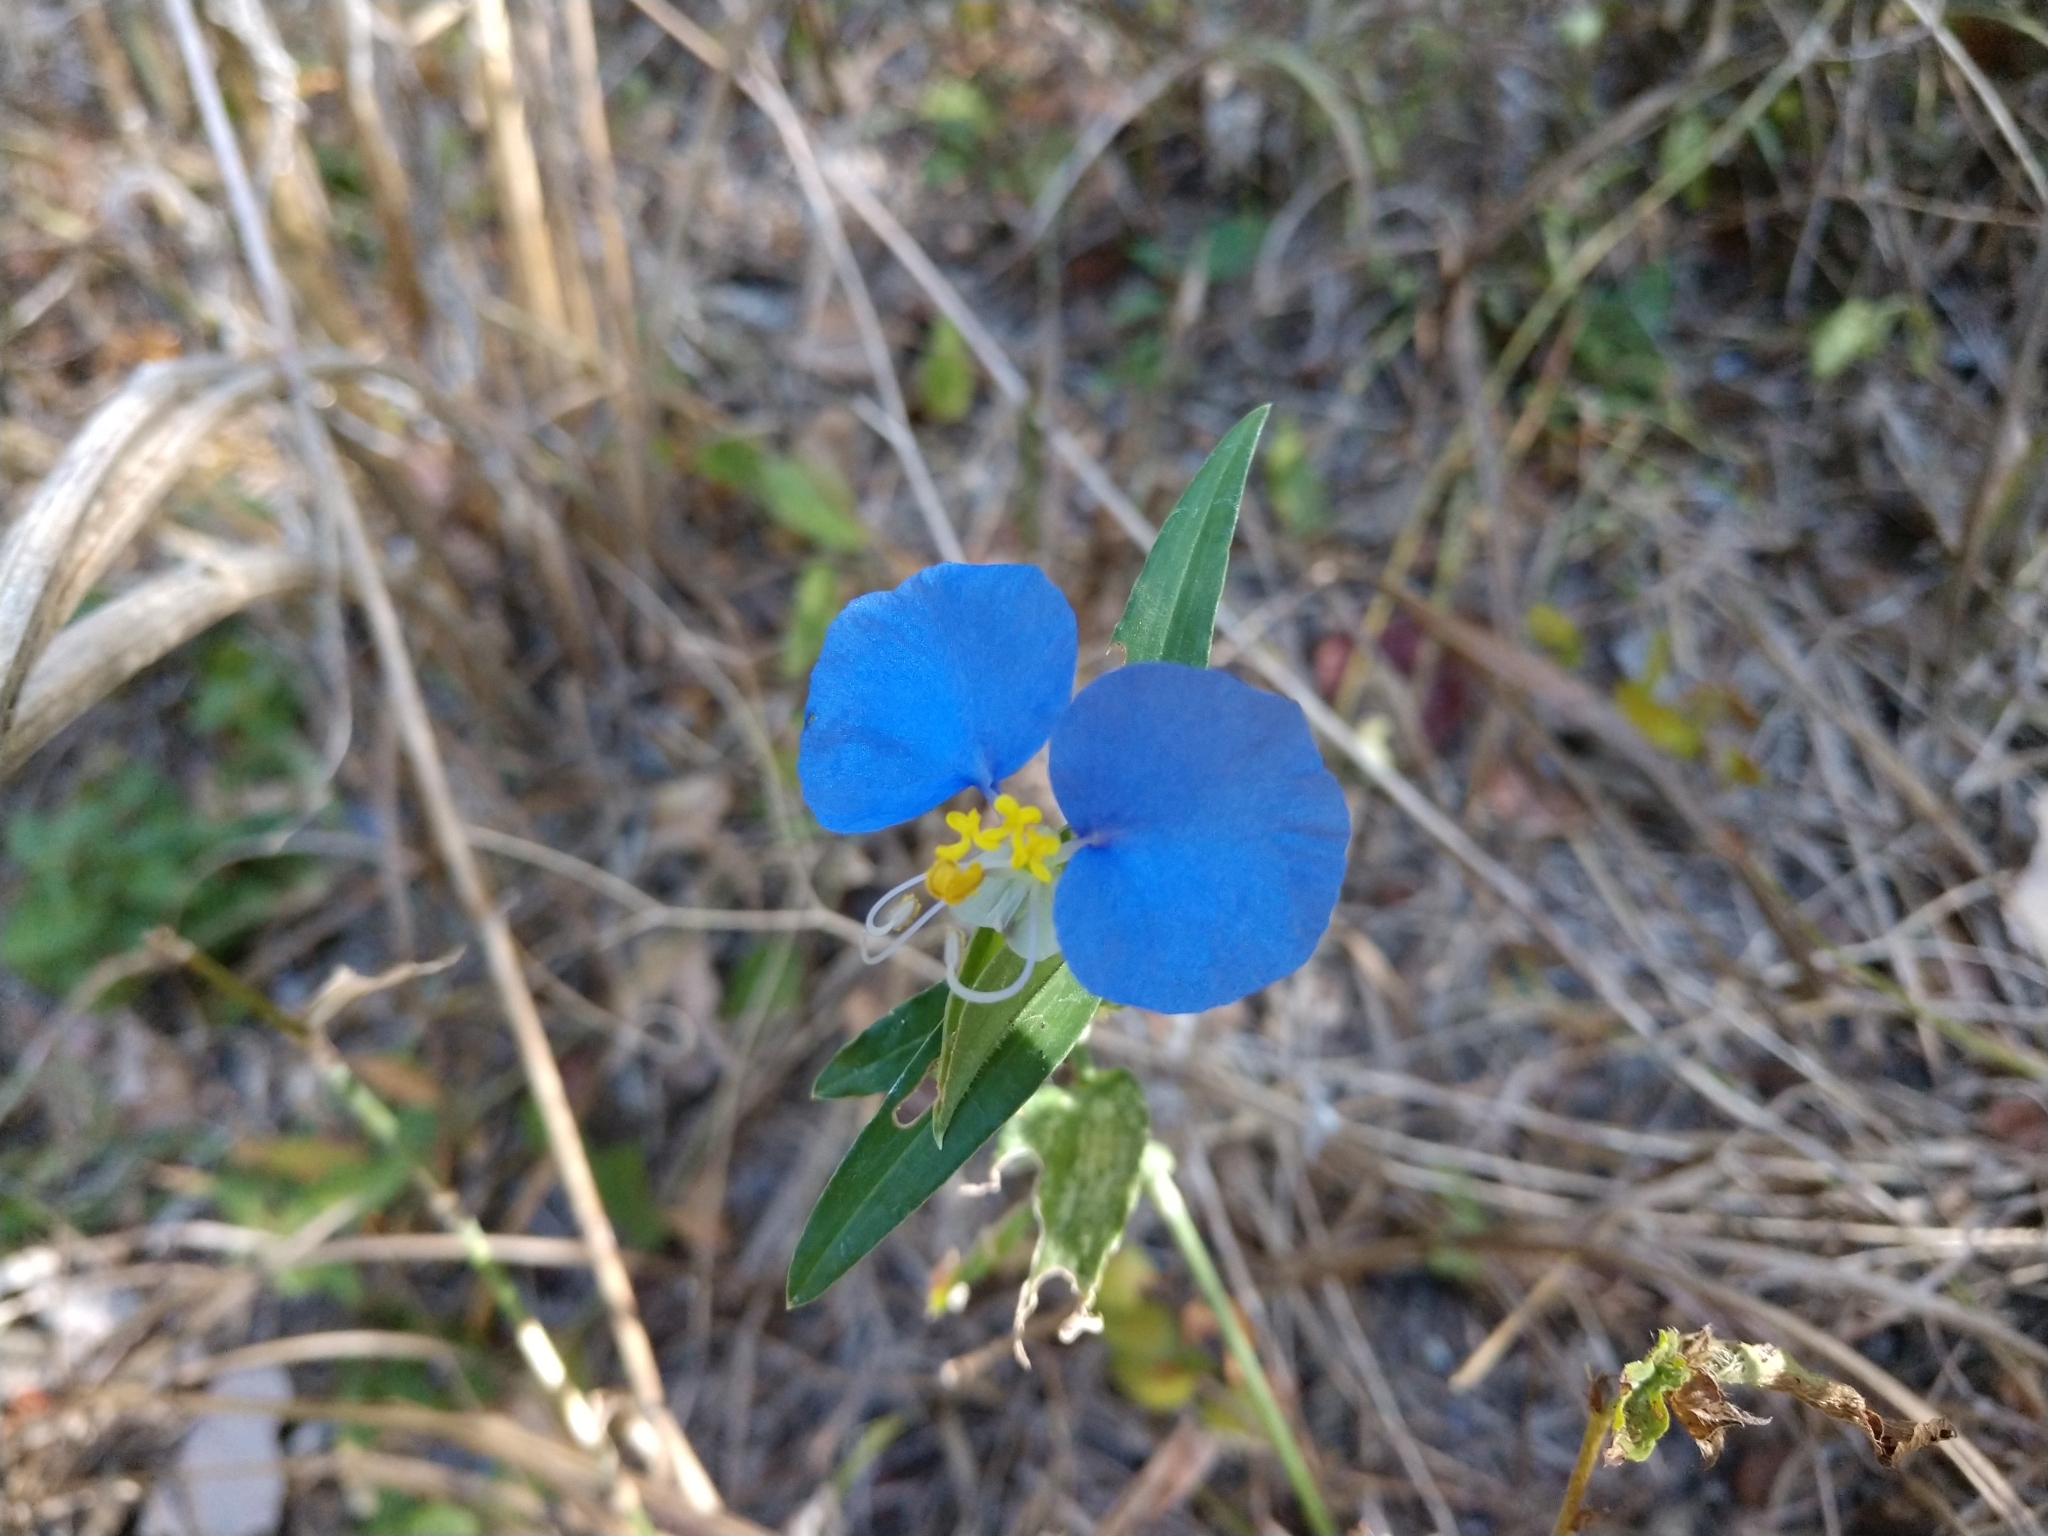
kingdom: Plantae
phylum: Tracheophyta
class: Liliopsida
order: Commelinales
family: Commelinaceae
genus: Commelina
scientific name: Commelina erecta
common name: Blousel blommetjie
